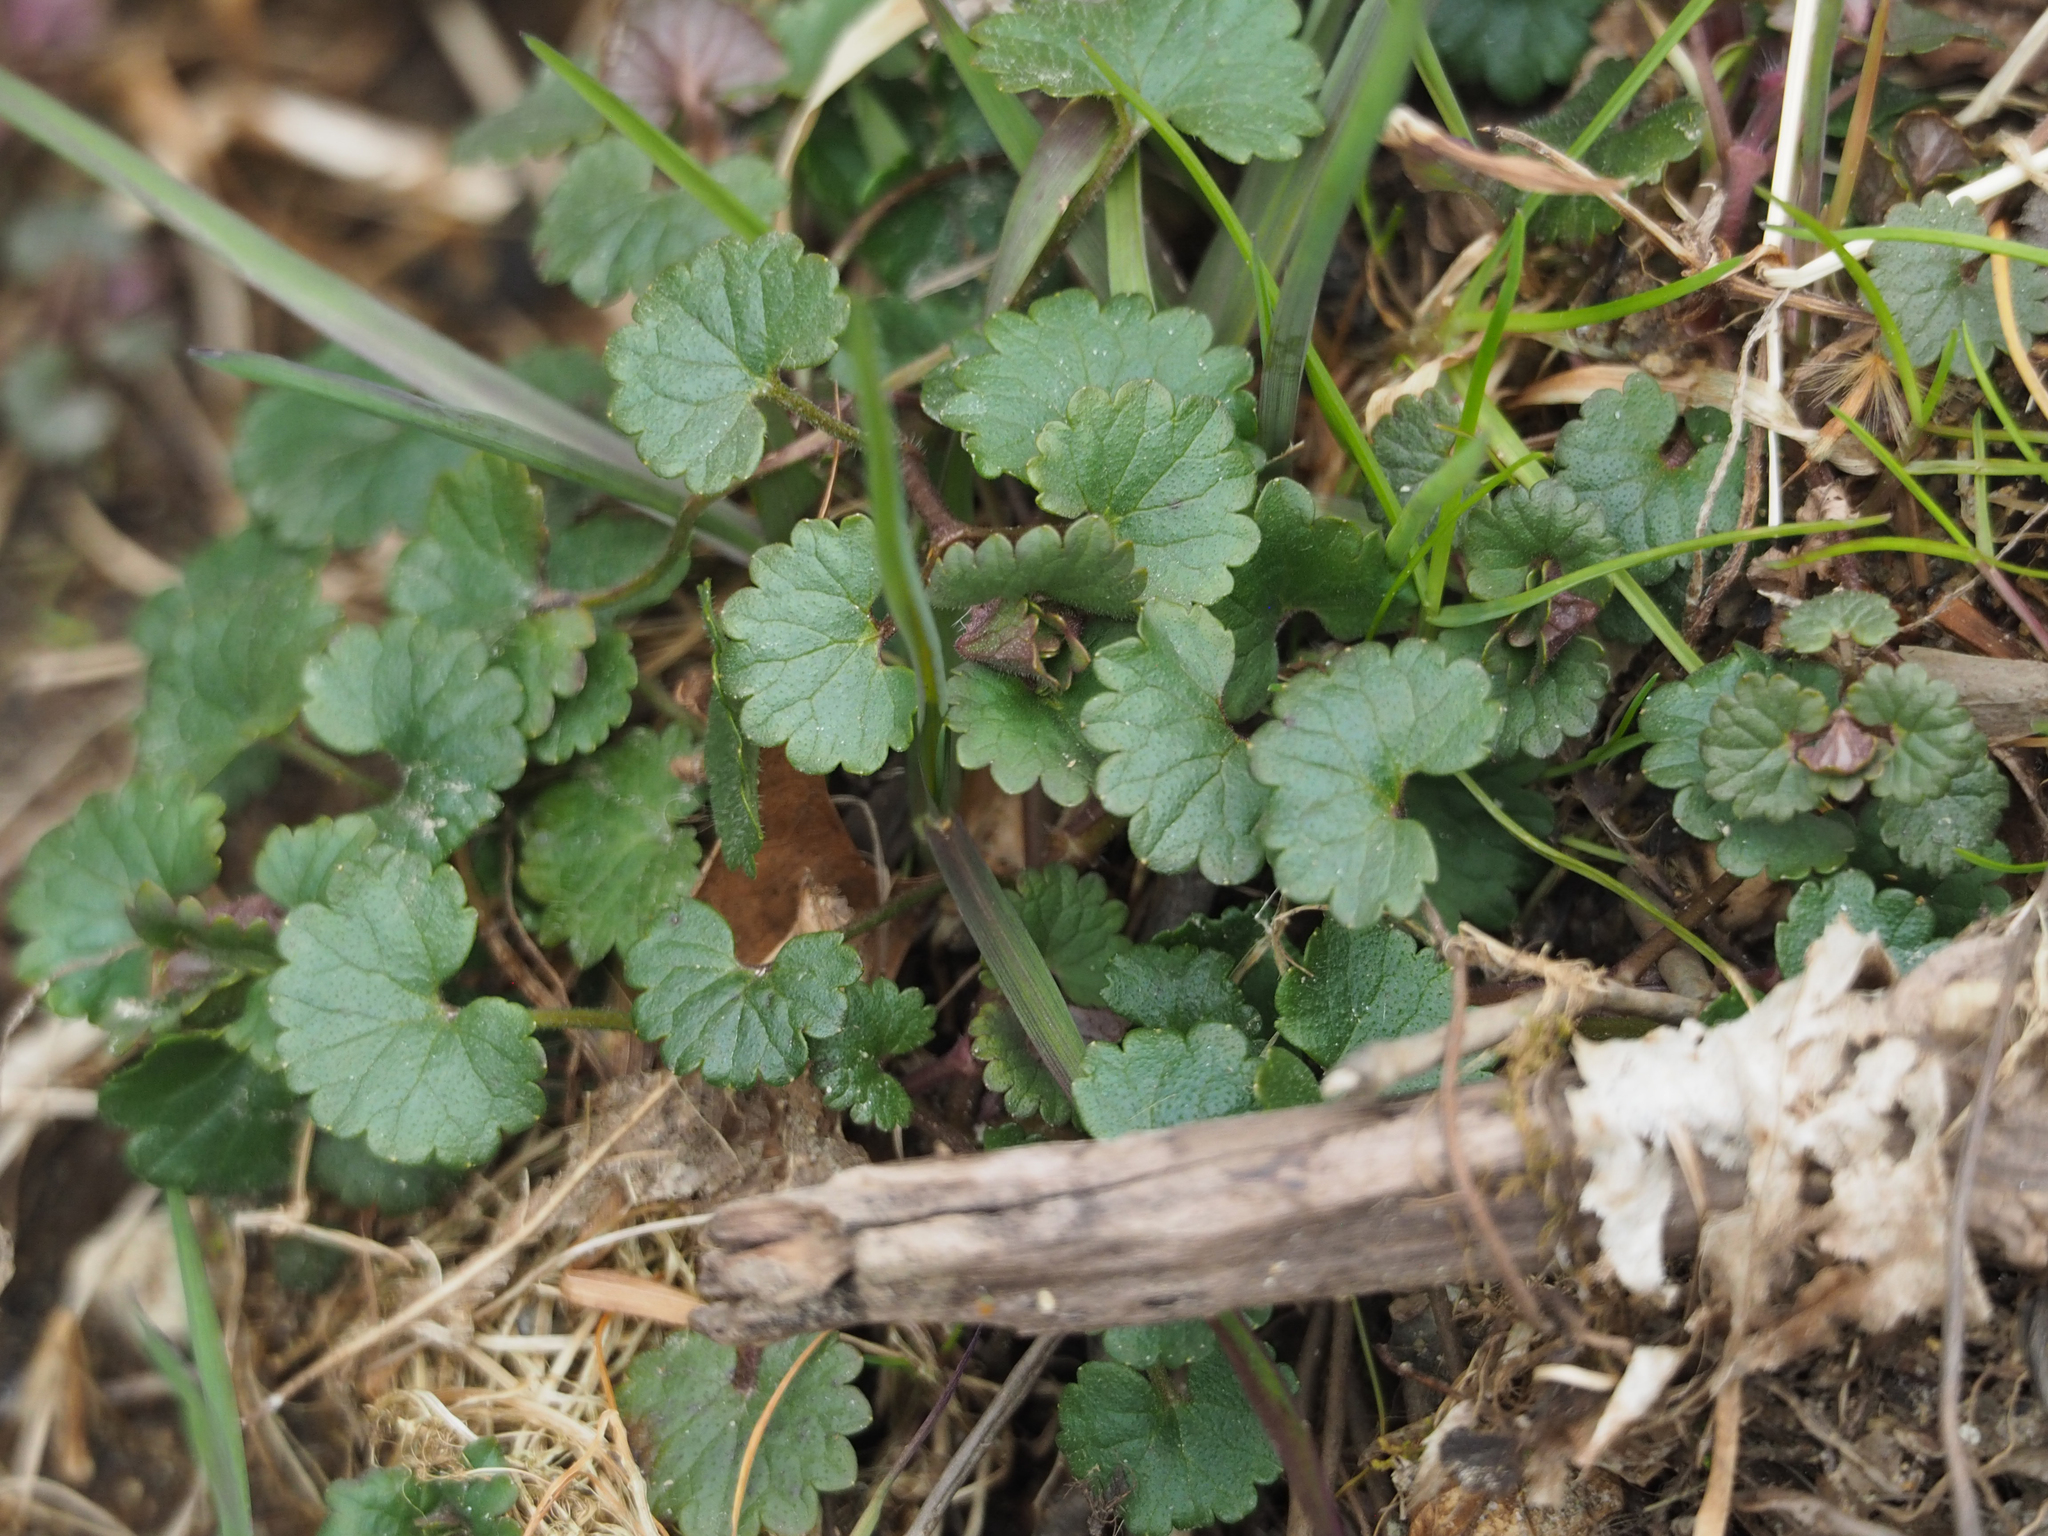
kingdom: Plantae
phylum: Tracheophyta
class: Magnoliopsida
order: Lamiales
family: Lamiaceae
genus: Glechoma
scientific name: Glechoma hederacea
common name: Ground ivy
